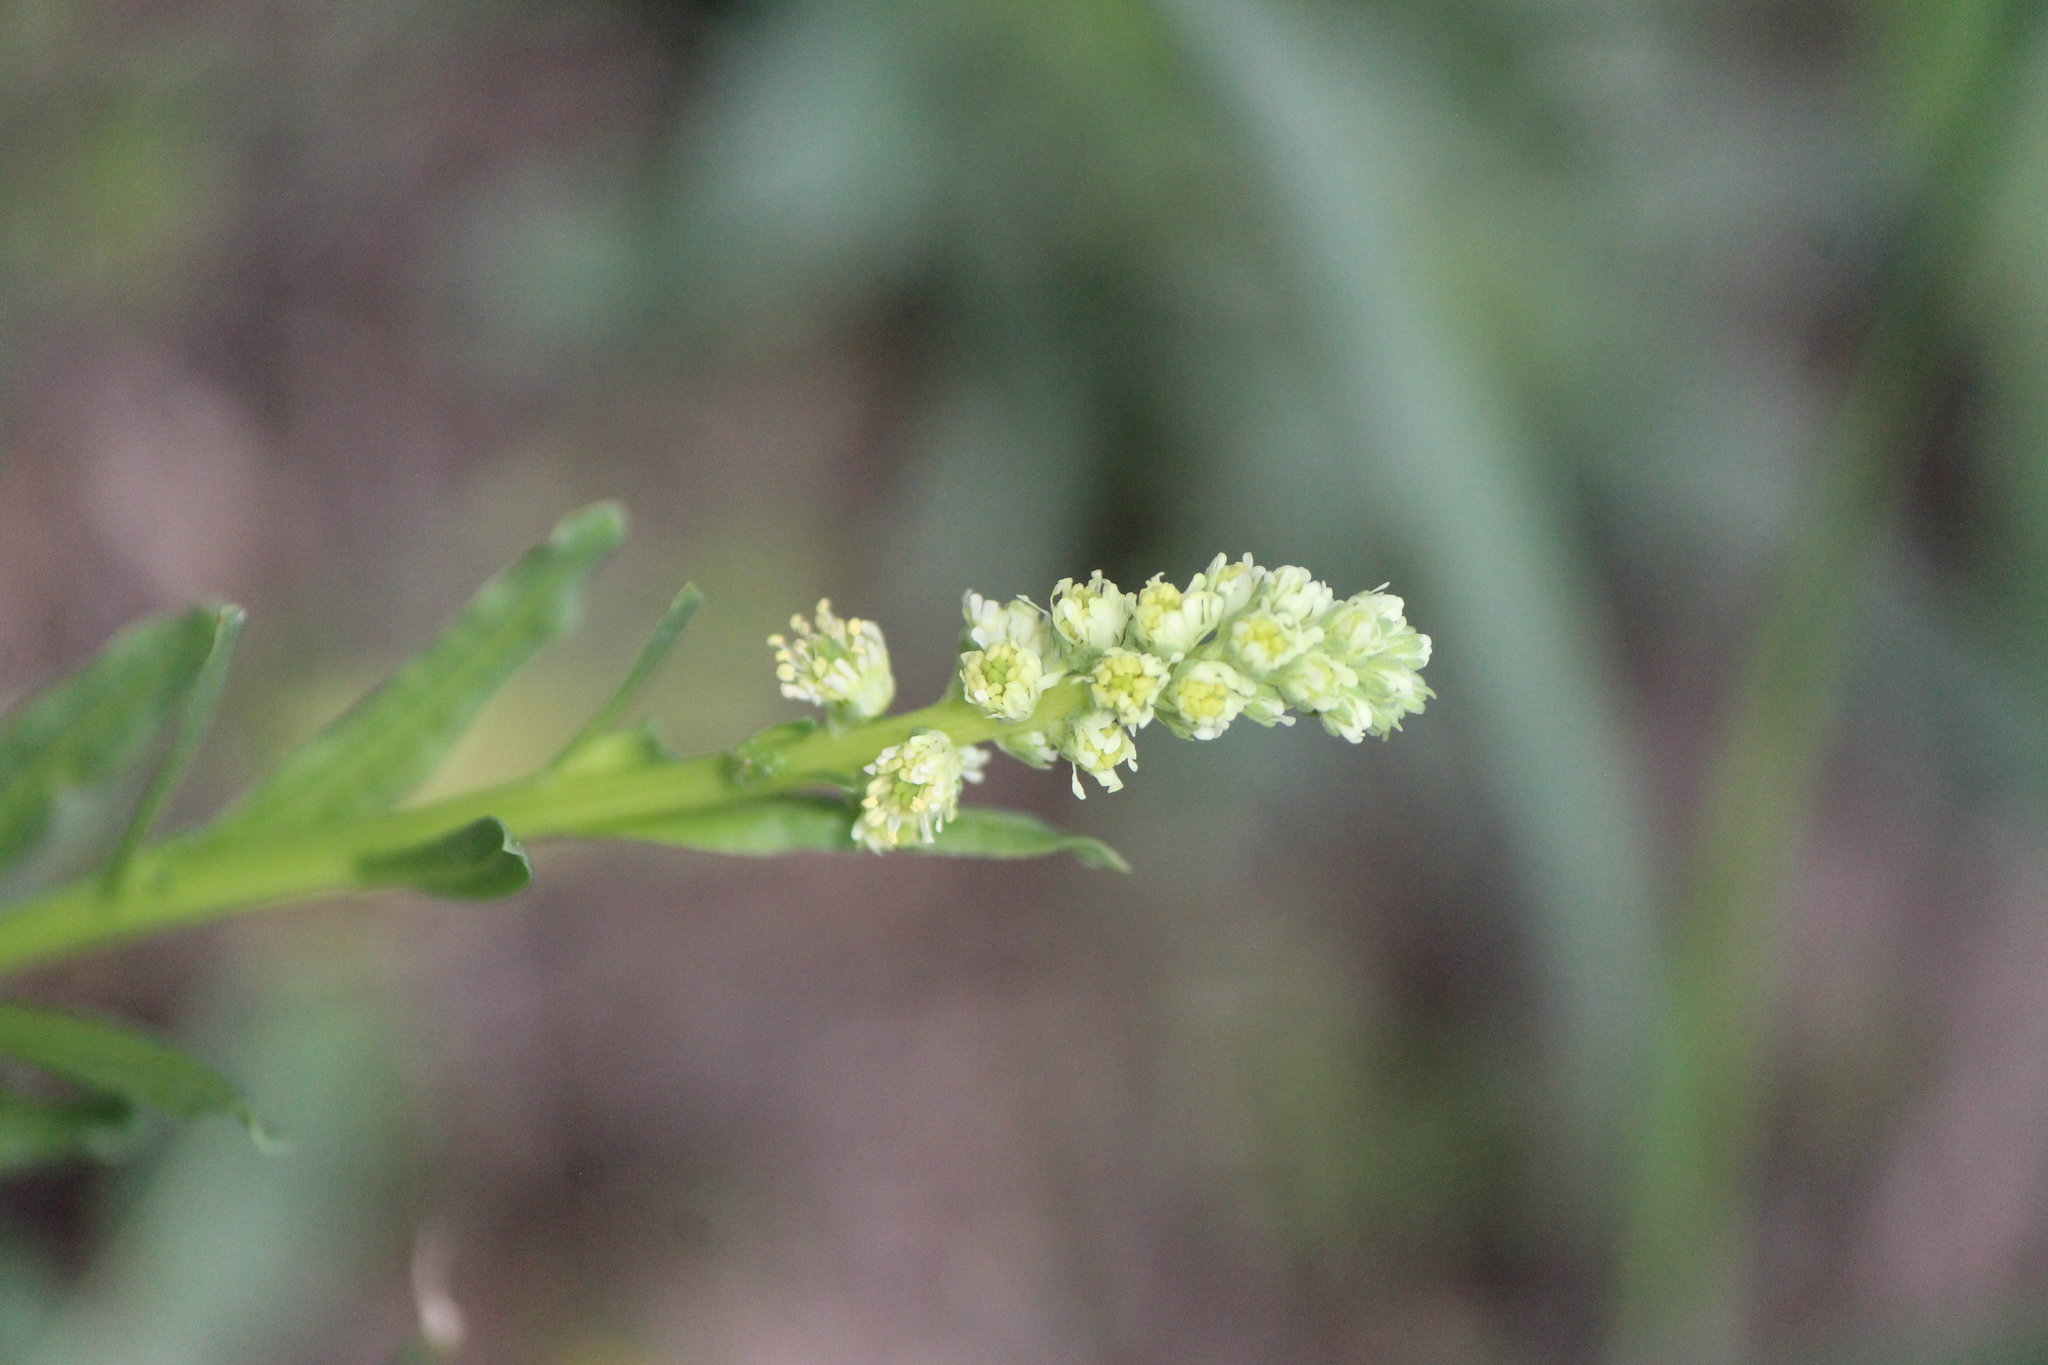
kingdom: Plantae
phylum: Tracheophyta
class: Magnoliopsida
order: Brassicales
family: Resedaceae
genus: Reseda
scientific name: Reseda luteola
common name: Weld
